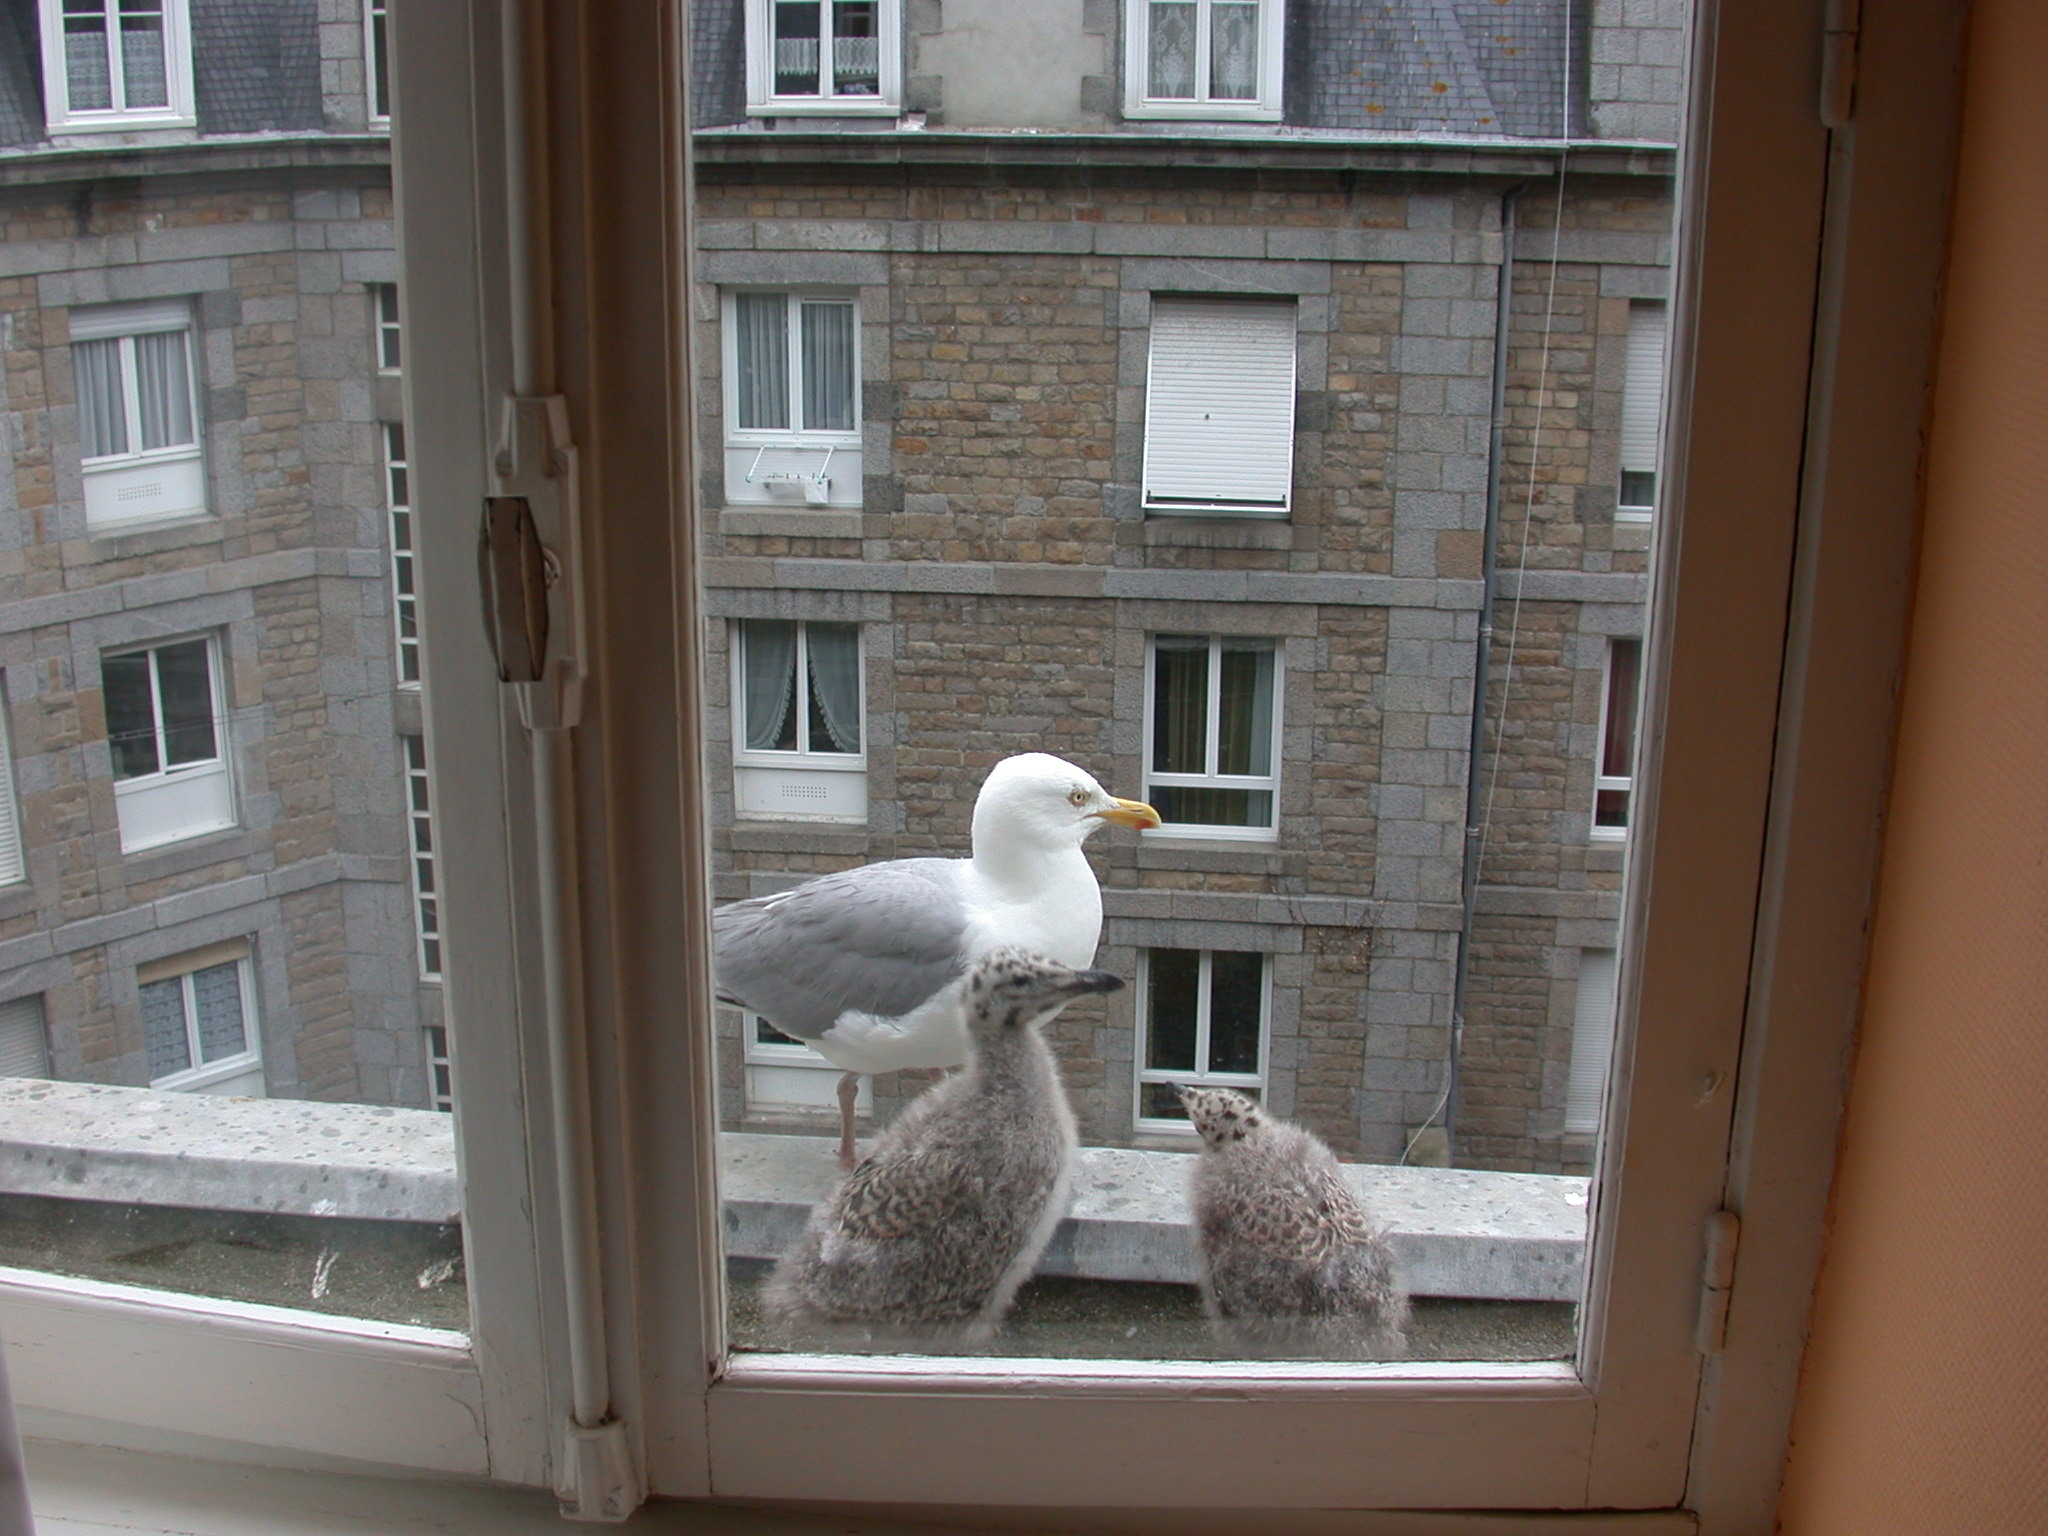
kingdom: Animalia
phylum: Chordata
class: Aves
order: Charadriiformes
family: Laridae
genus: Larus
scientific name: Larus argentatus
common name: Herring gull
